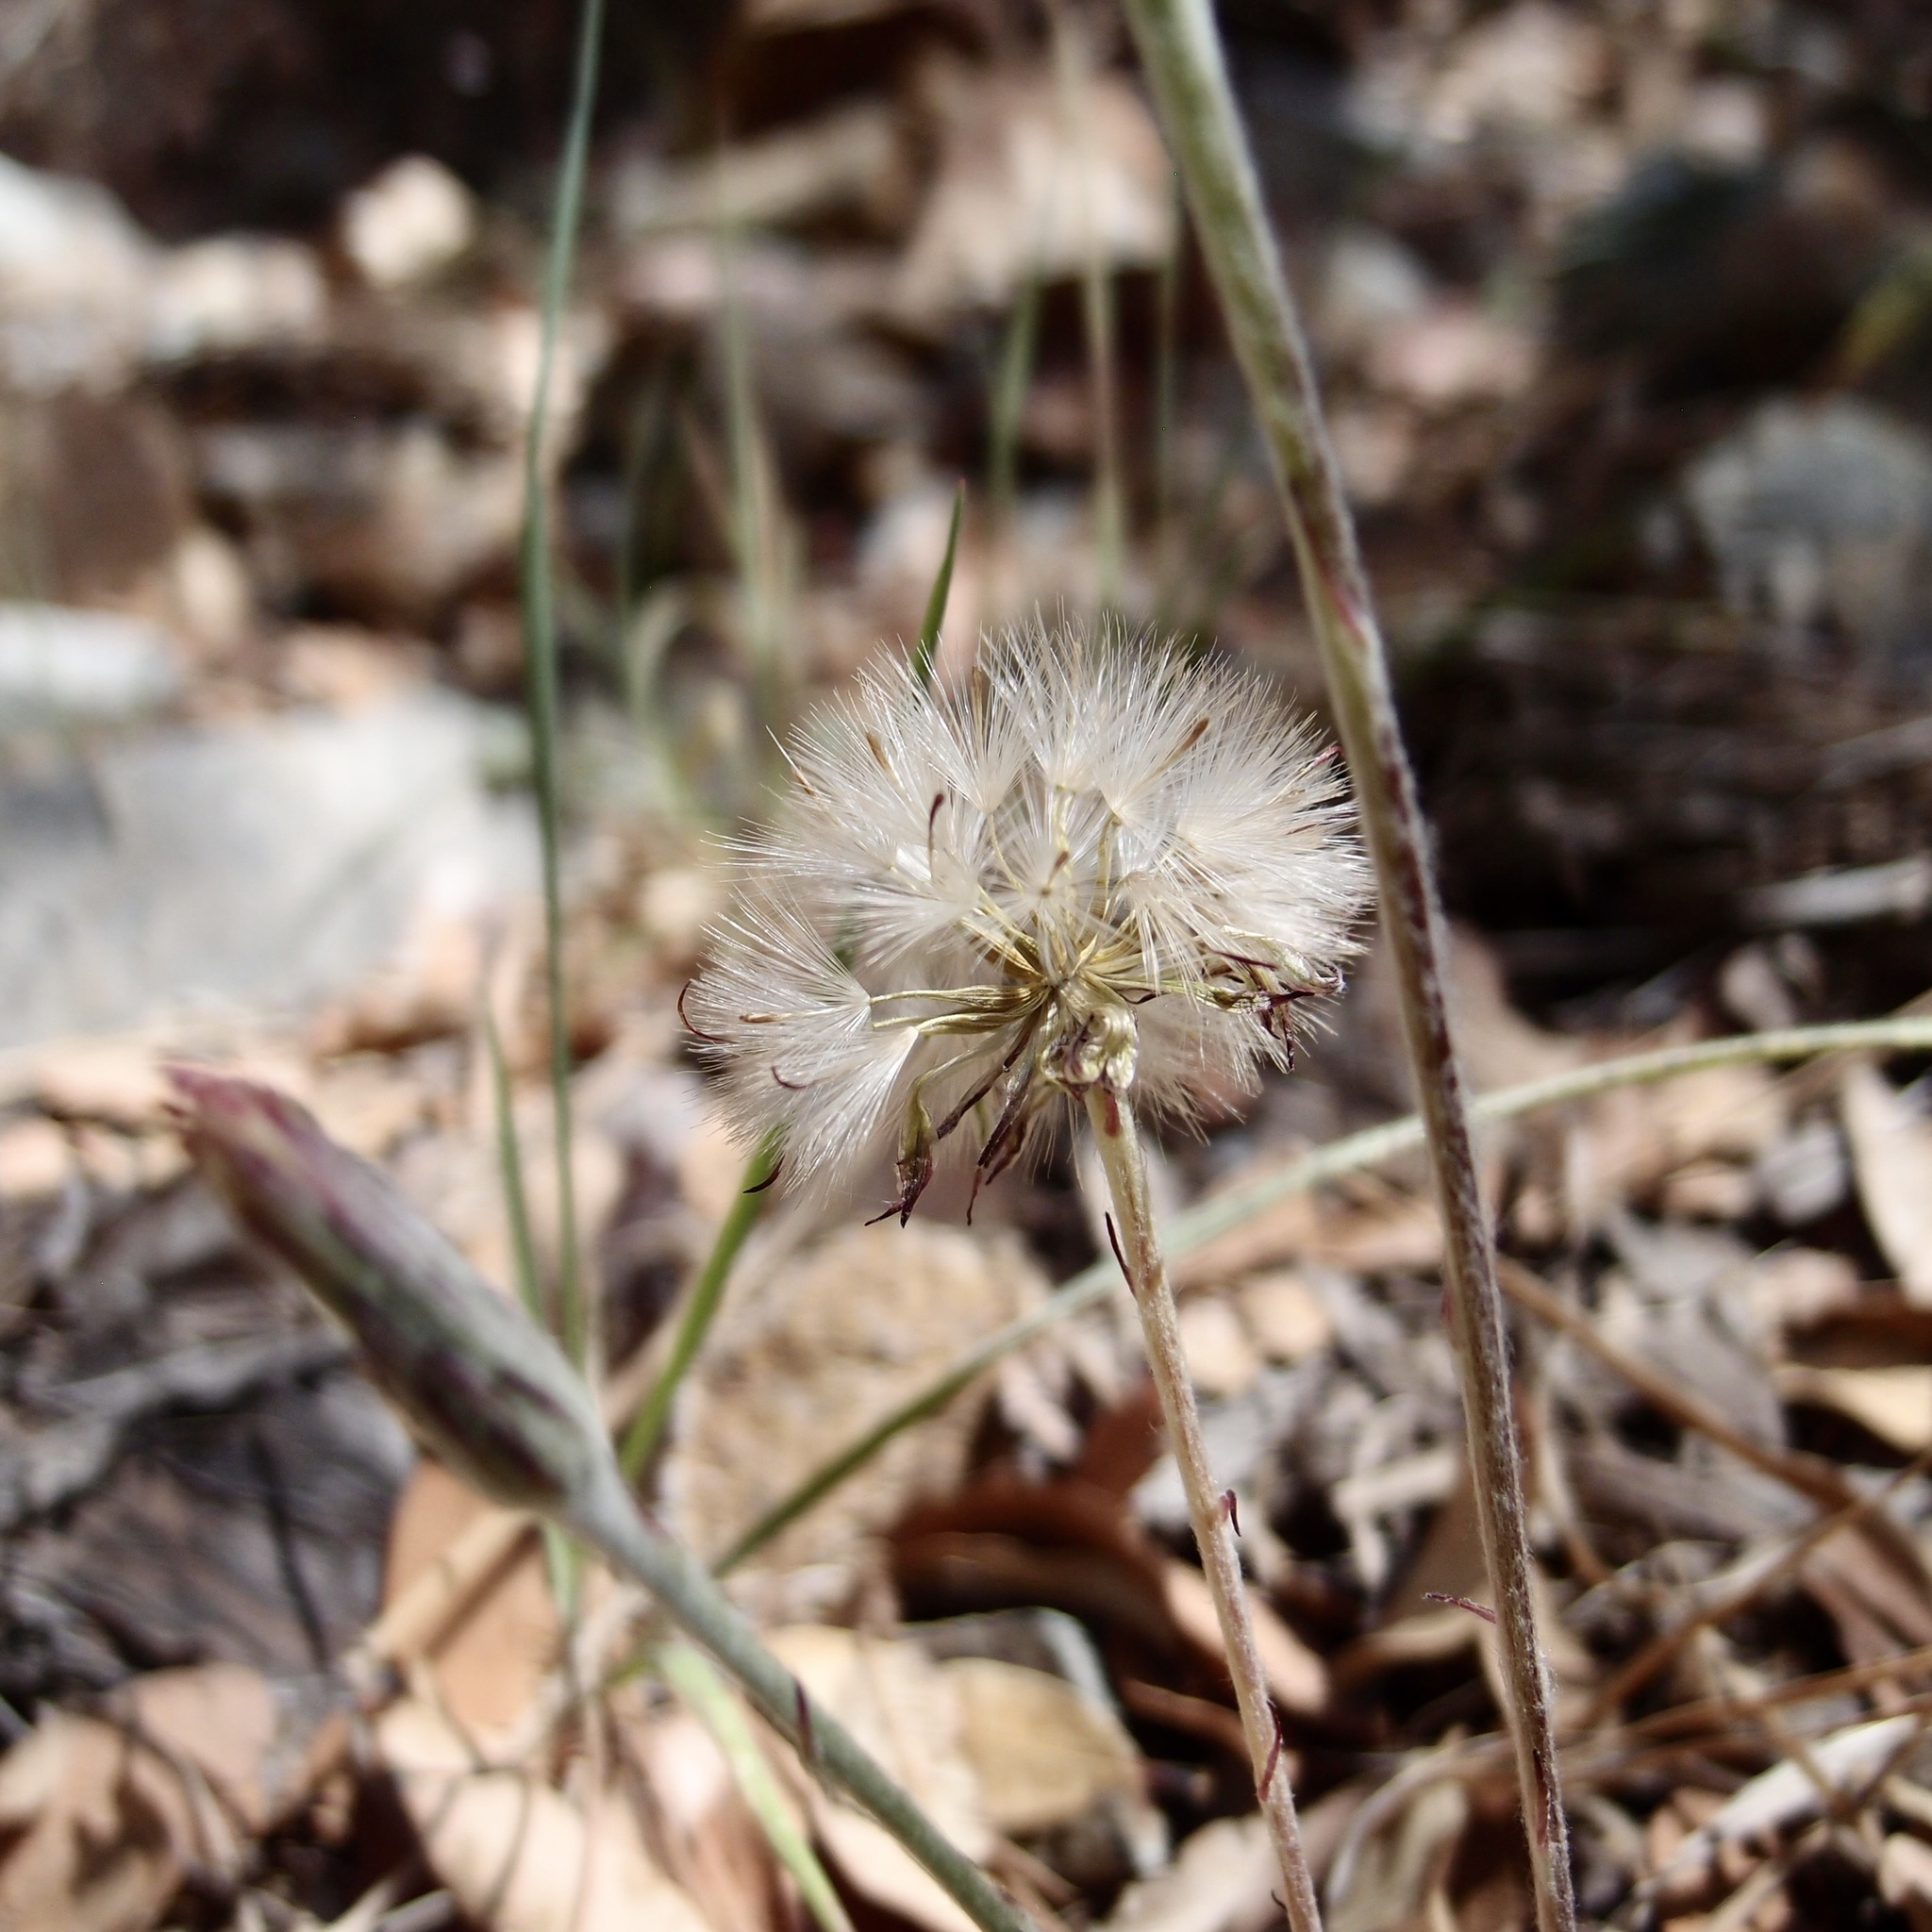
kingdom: Plantae
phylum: Tracheophyta
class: Magnoliopsida
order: Asterales
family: Asteraceae
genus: Leibnitzia
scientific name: Leibnitzia lyrata
